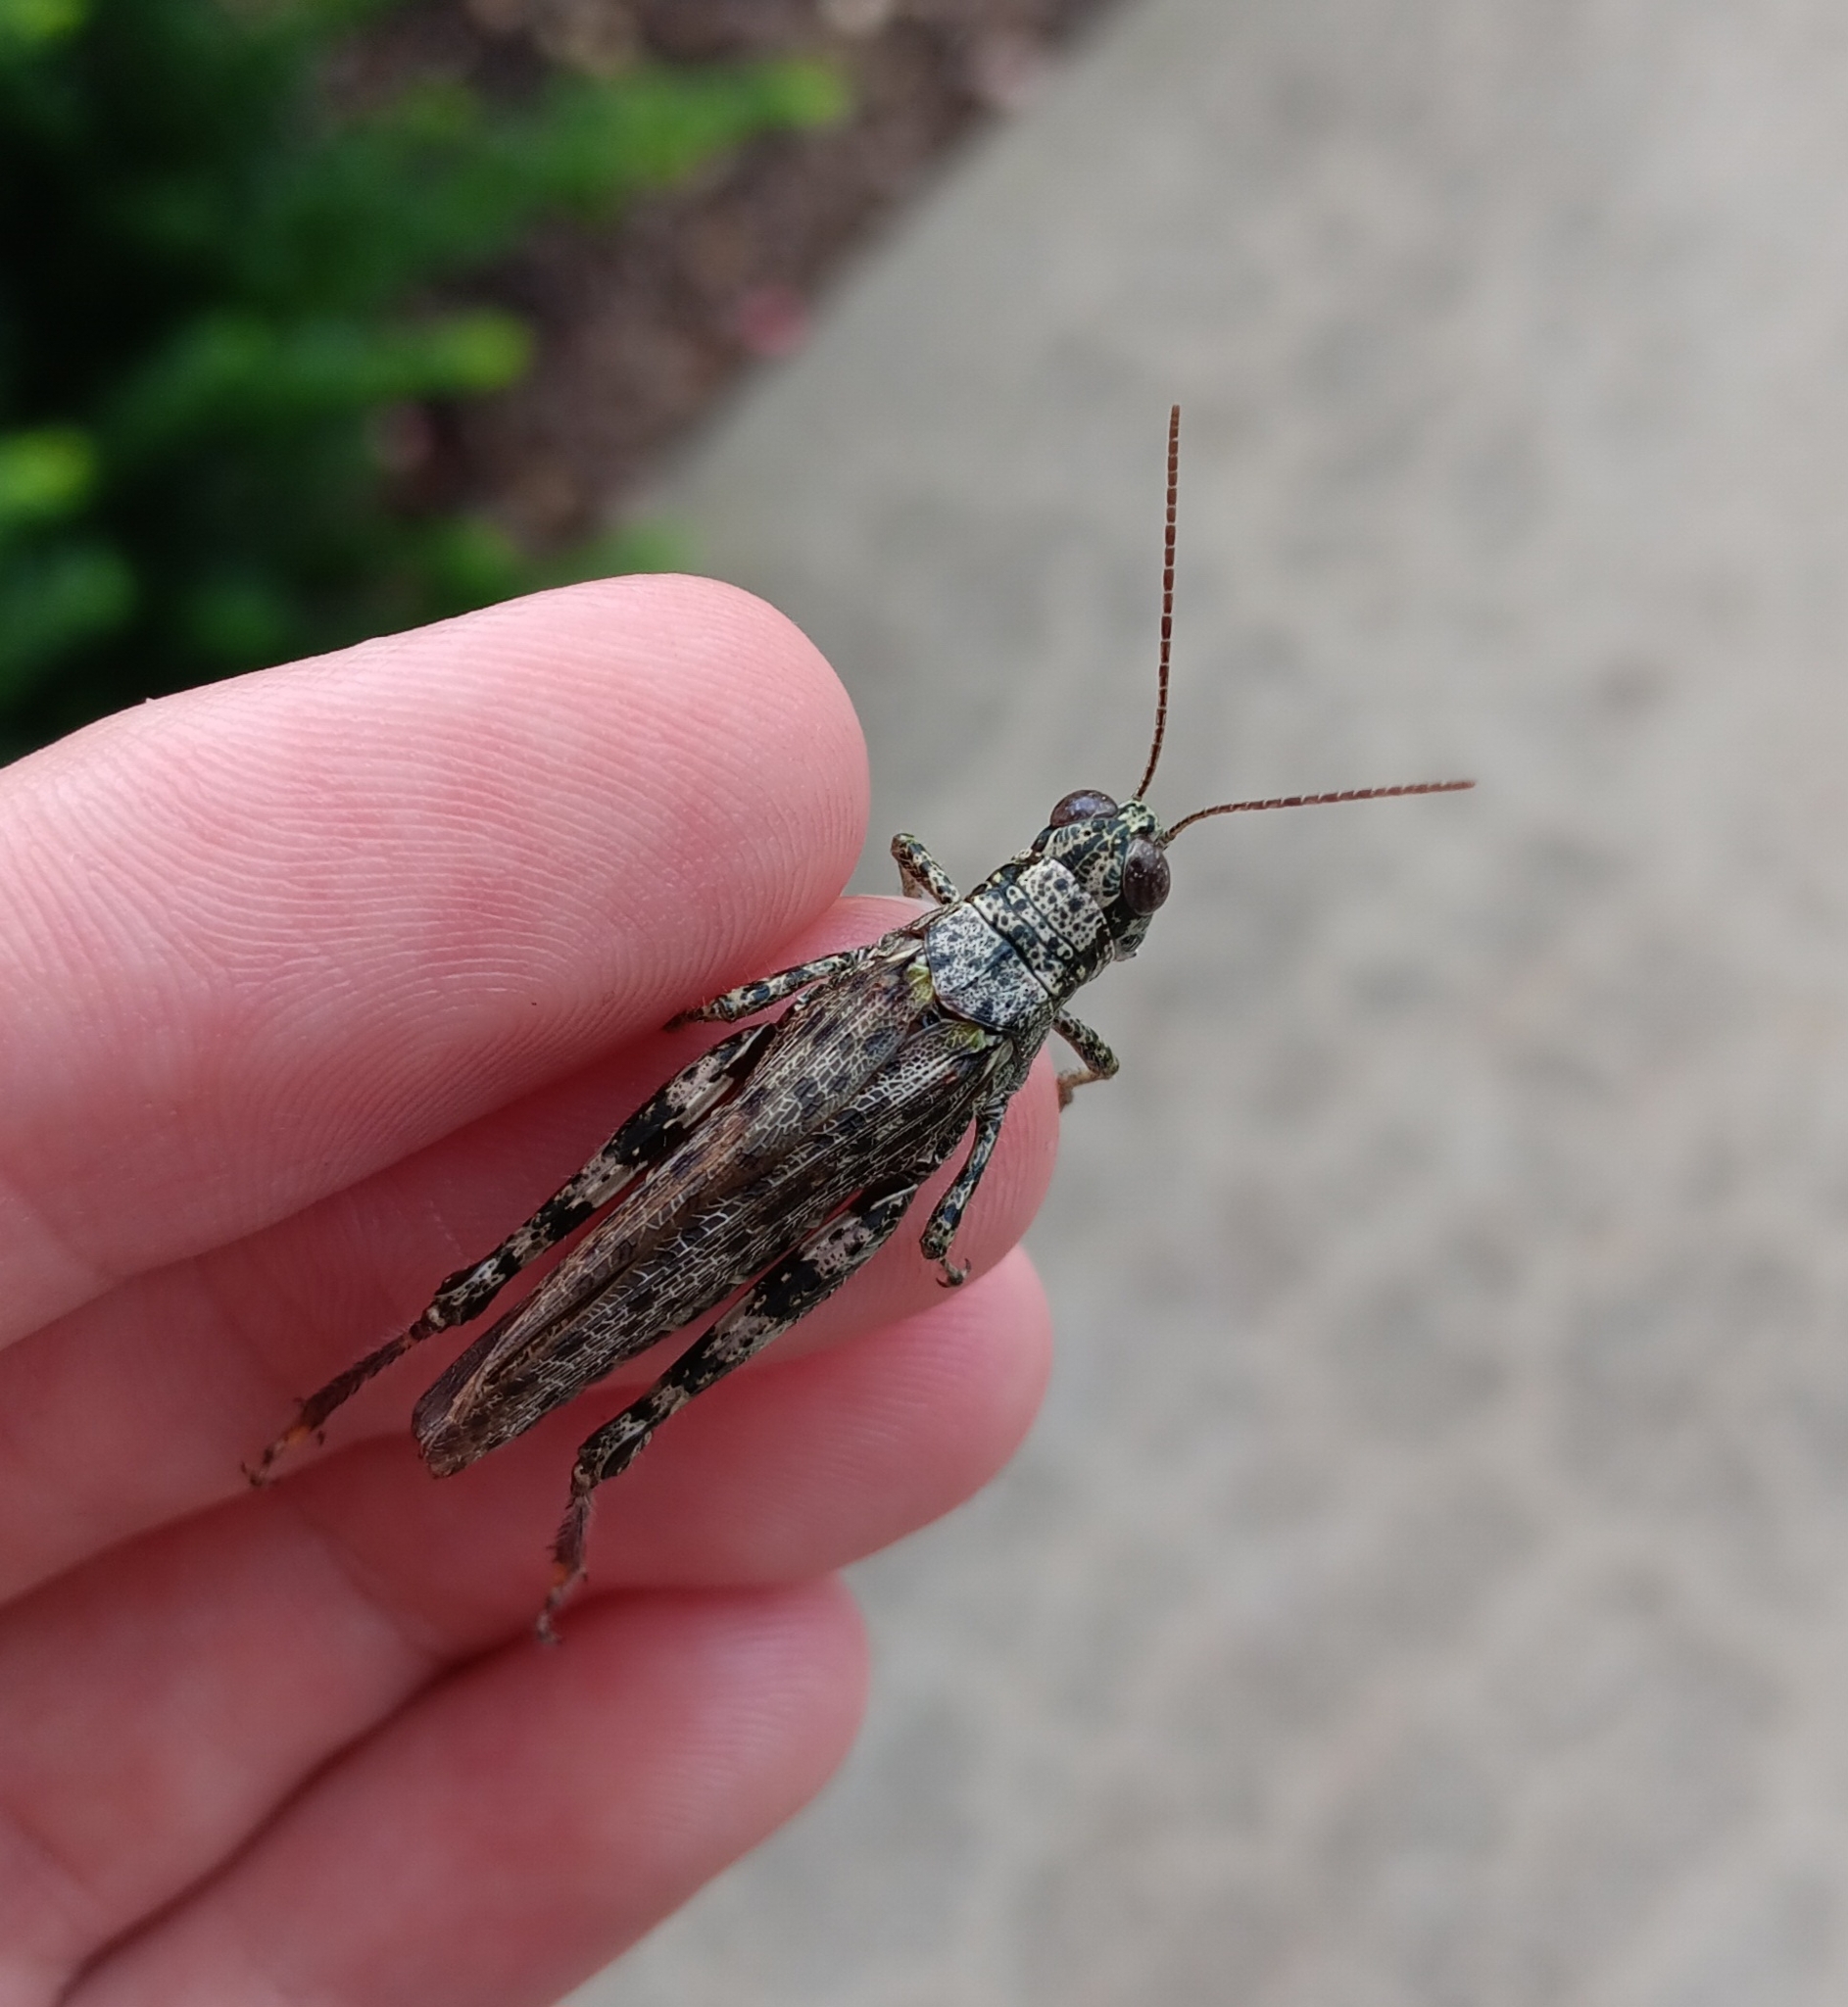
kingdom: Animalia
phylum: Arthropoda
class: Insecta
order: Orthoptera
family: Acrididae
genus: Melanoplus
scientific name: Melanoplus punctulatus
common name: Pine-tree spur-throat grasshopper
